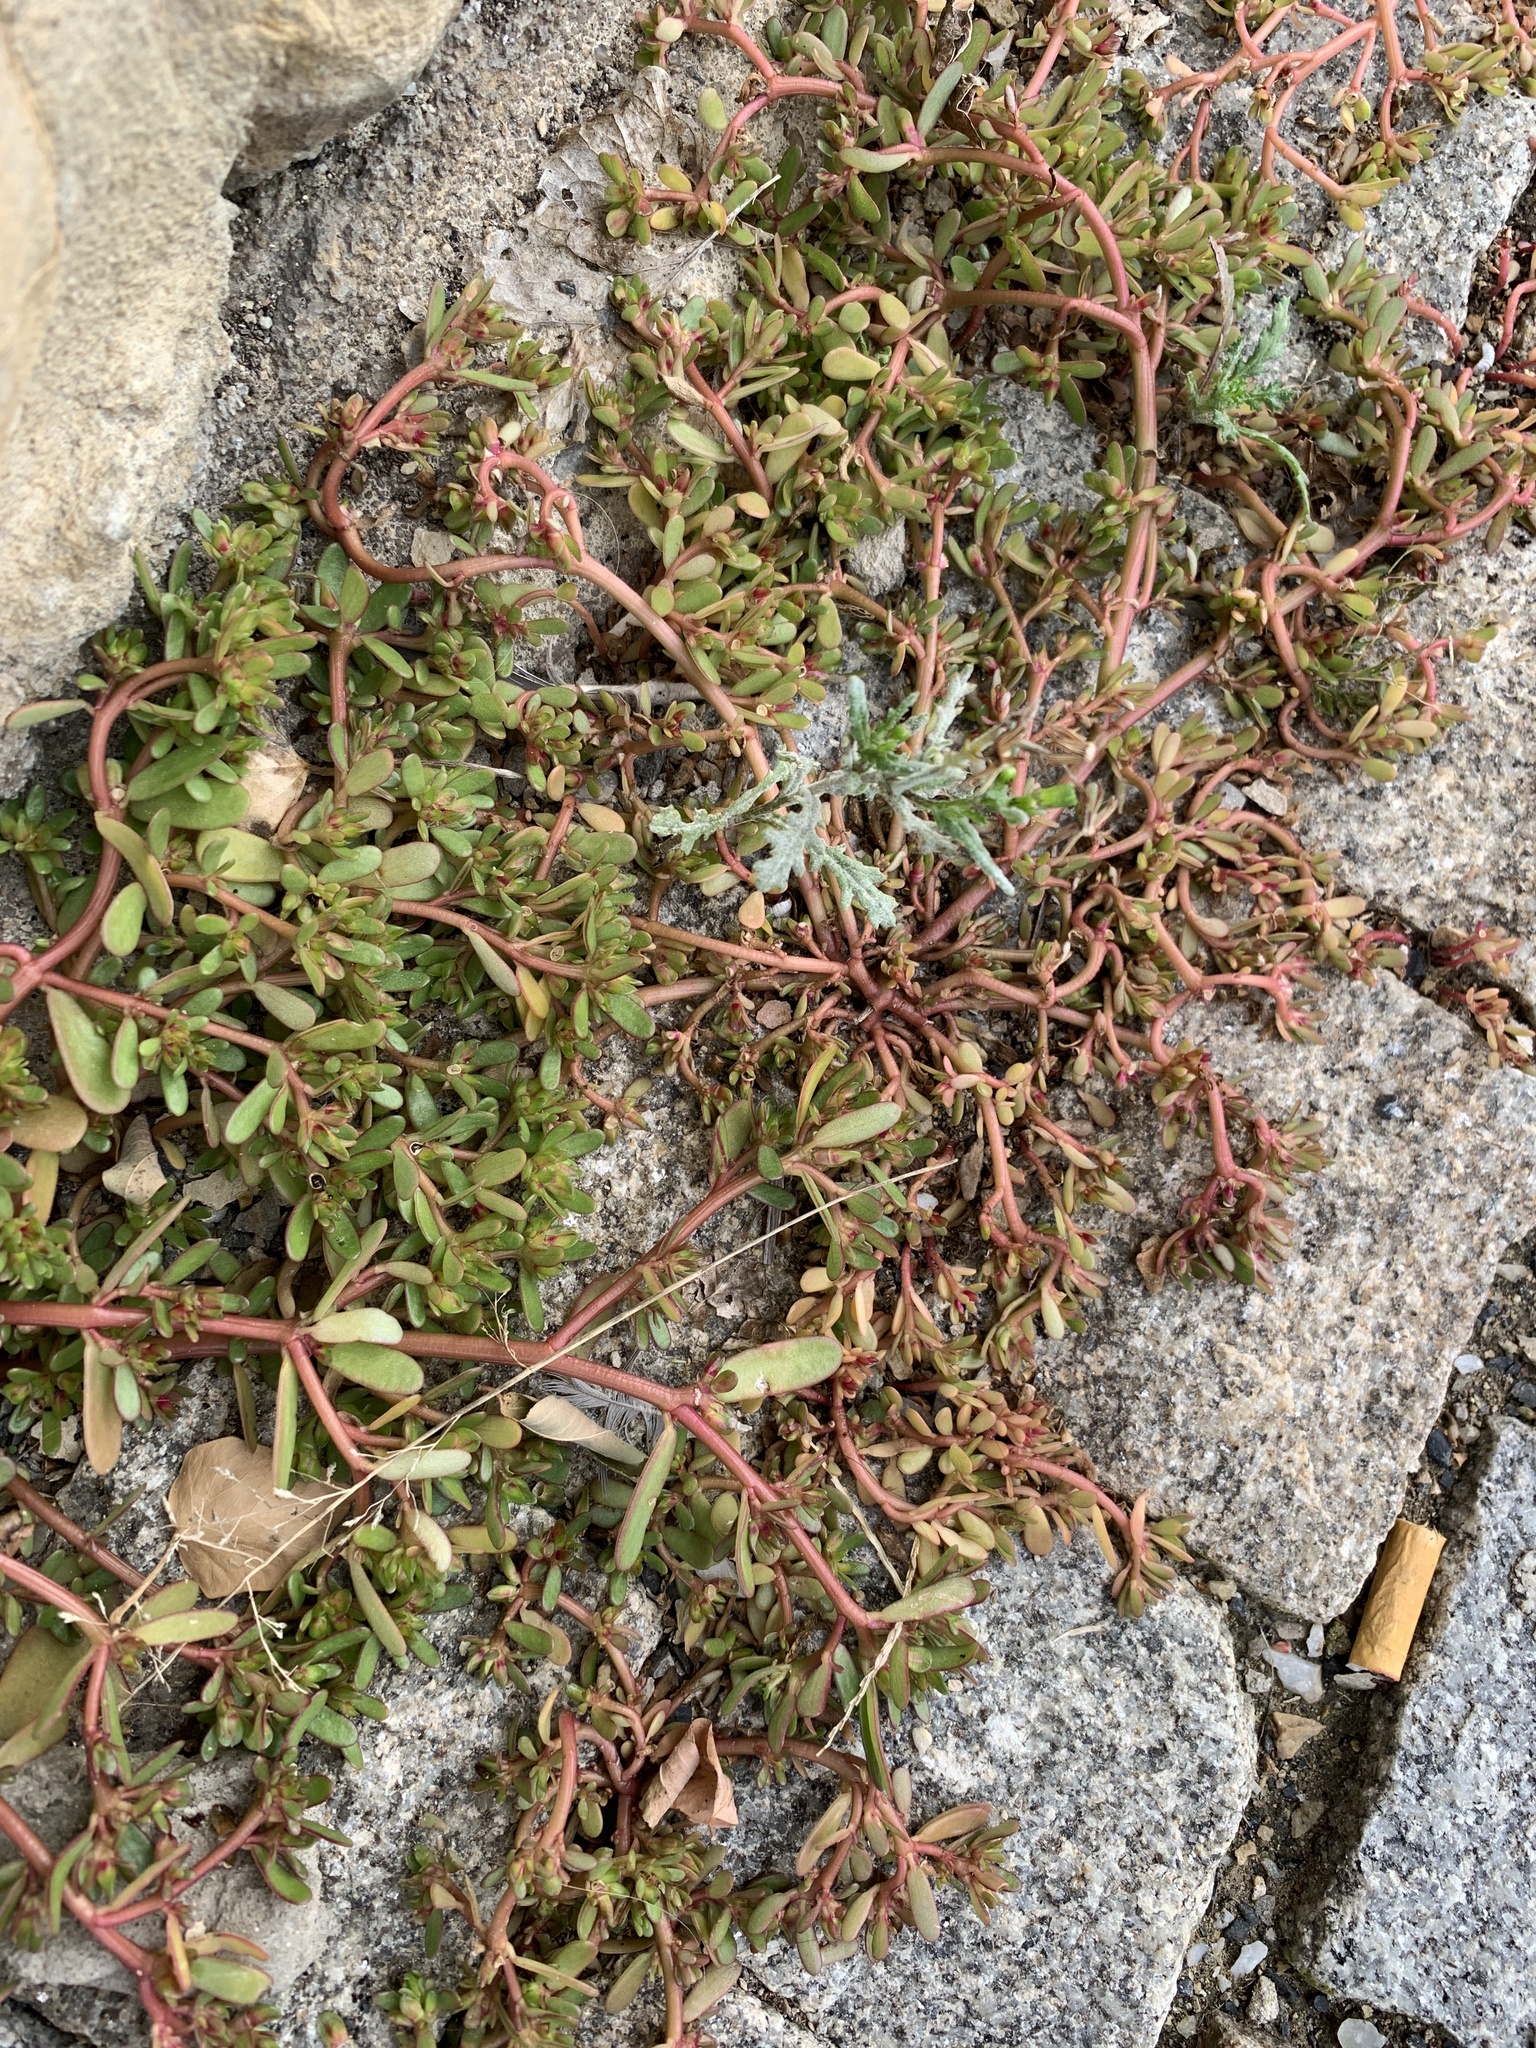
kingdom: Plantae
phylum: Tracheophyta
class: Magnoliopsida
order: Caryophyllales
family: Portulacaceae
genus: Portulaca
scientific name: Portulaca oleracea
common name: Common purslane
